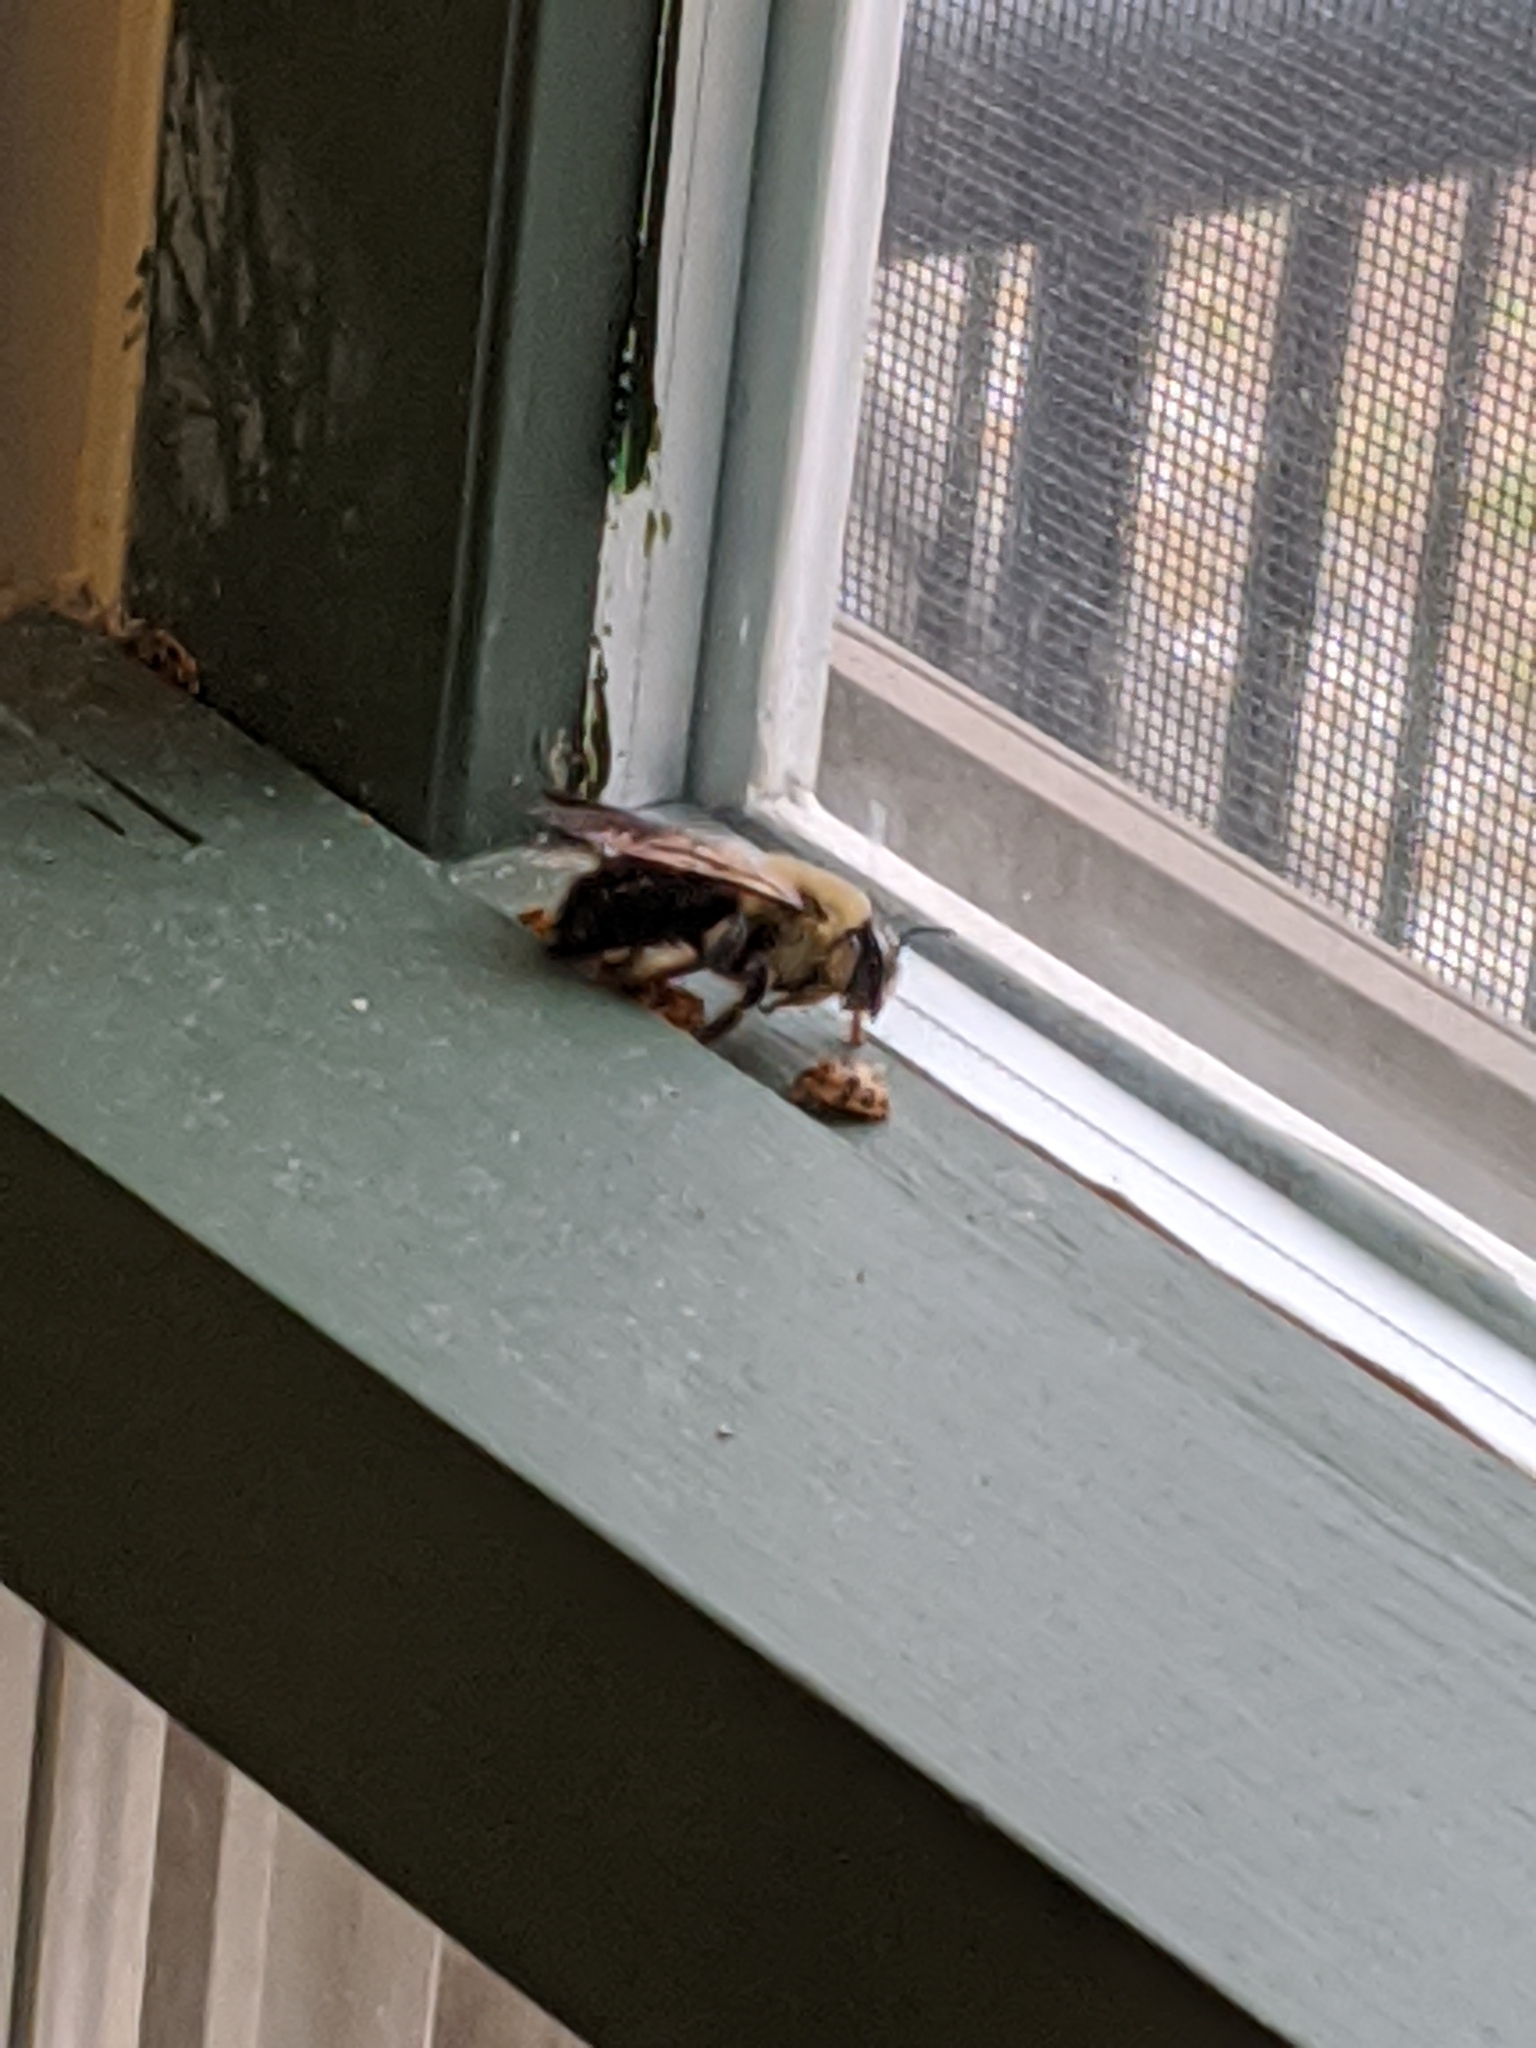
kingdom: Animalia
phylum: Arthropoda
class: Insecta
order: Hymenoptera
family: Apidae
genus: Xylocopa
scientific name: Xylocopa virginica
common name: Carpenter bee
